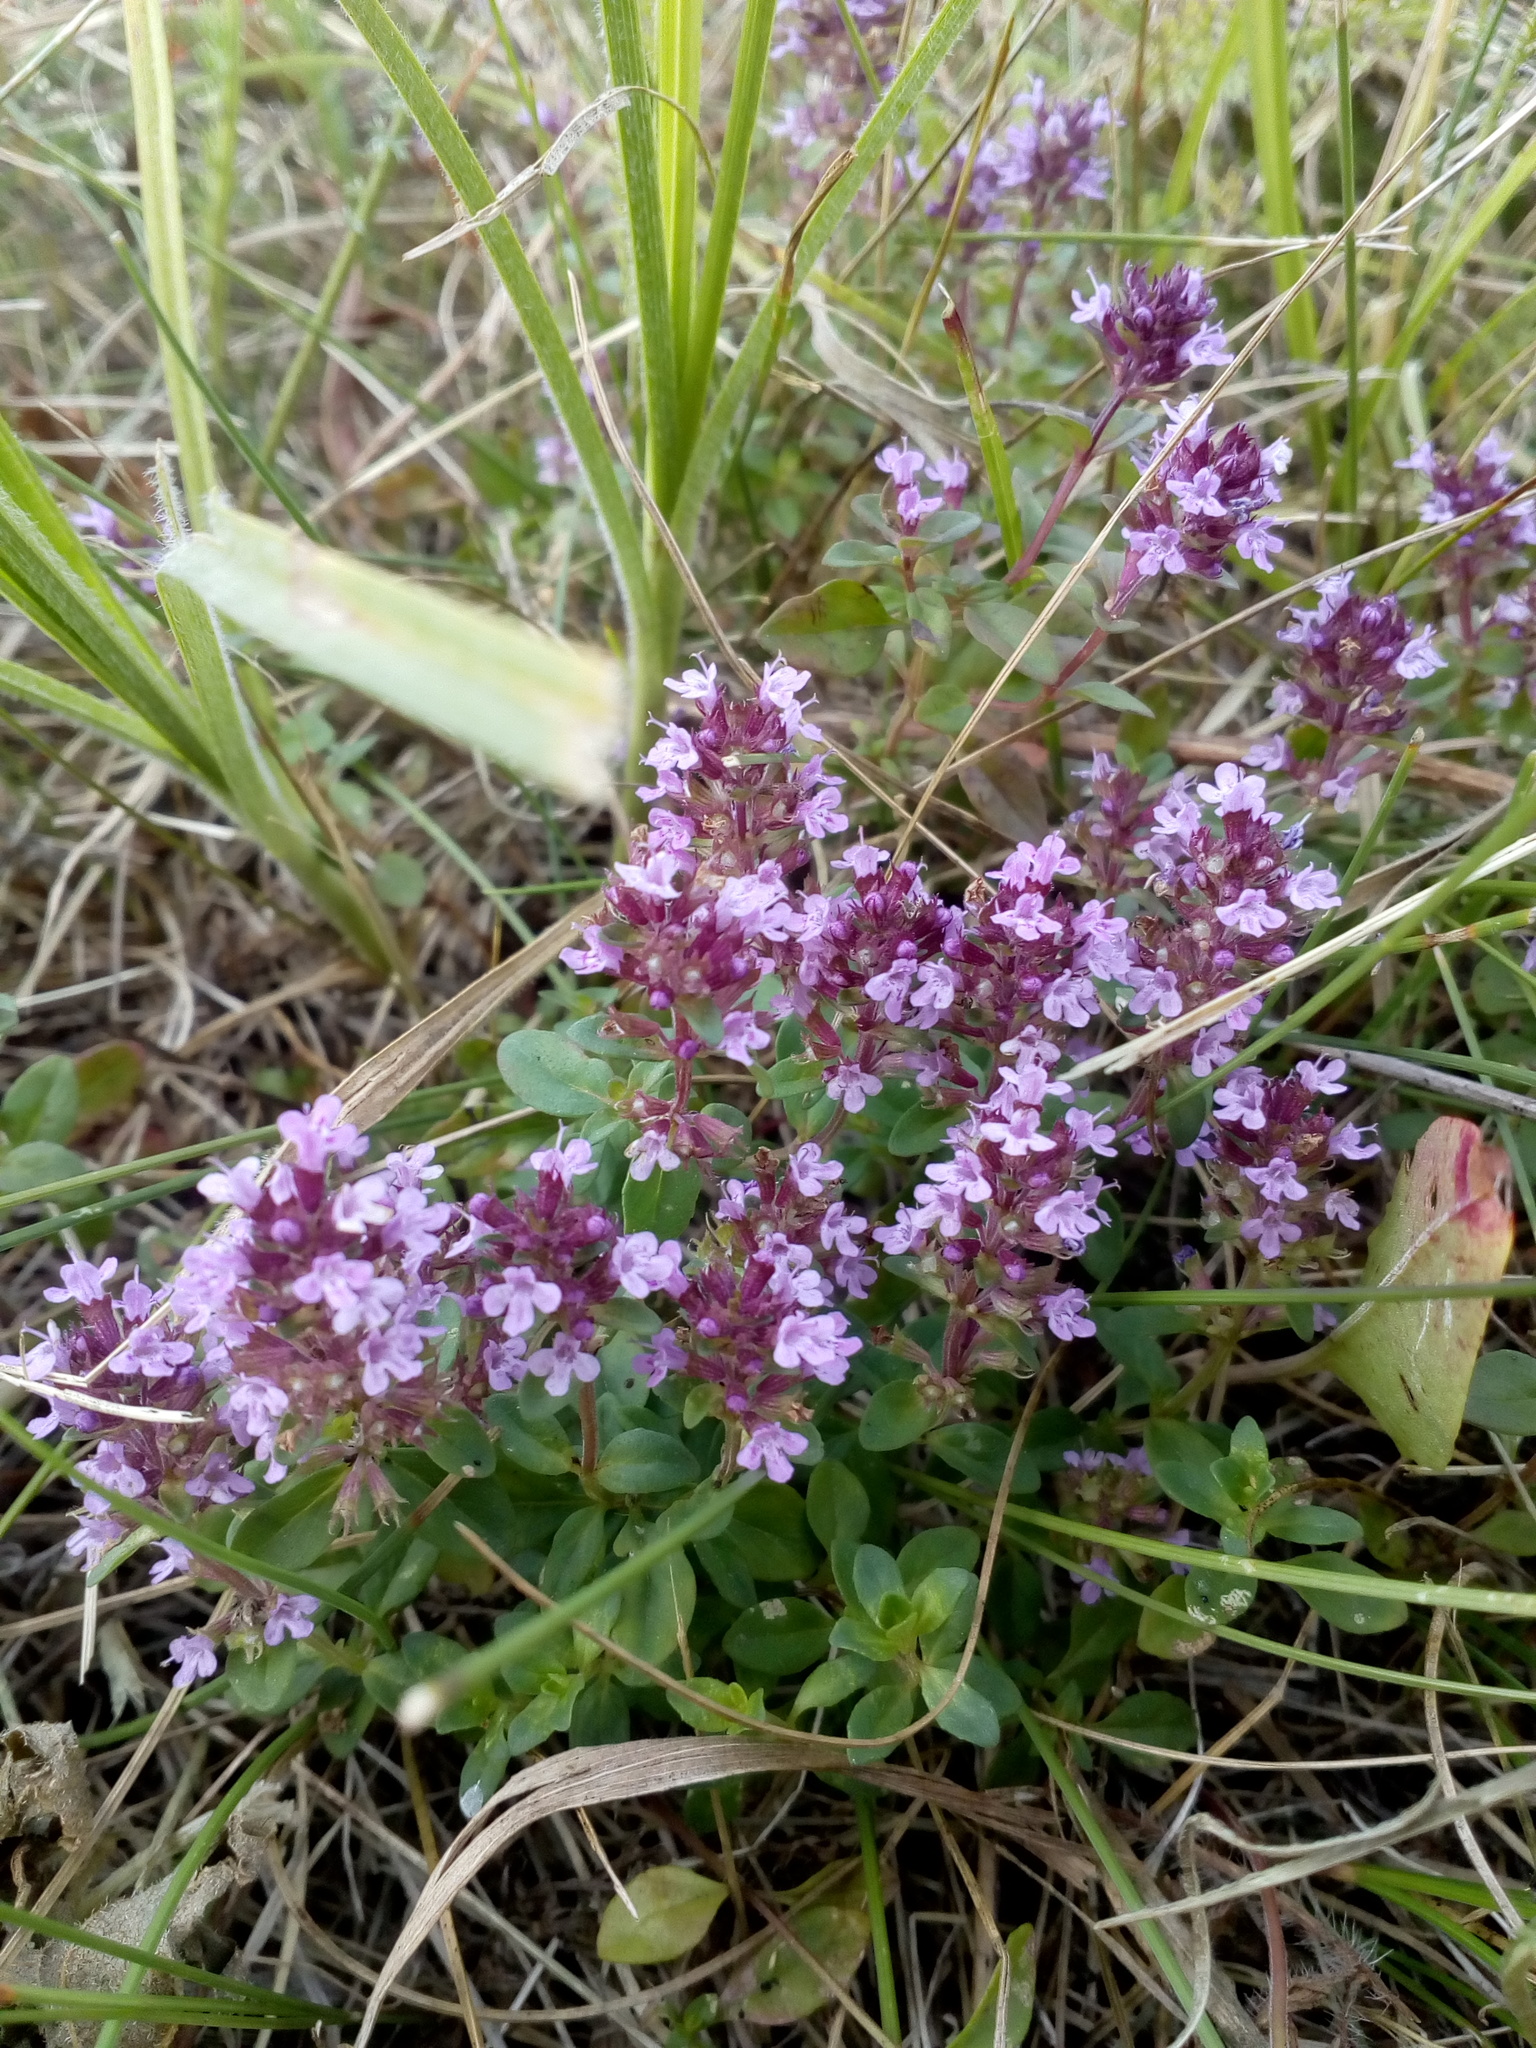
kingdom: Plantae
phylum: Tracheophyta
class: Magnoliopsida
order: Lamiales
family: Lamiaceae
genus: Thymus
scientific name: Thymus pulegioides
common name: Large thyme
